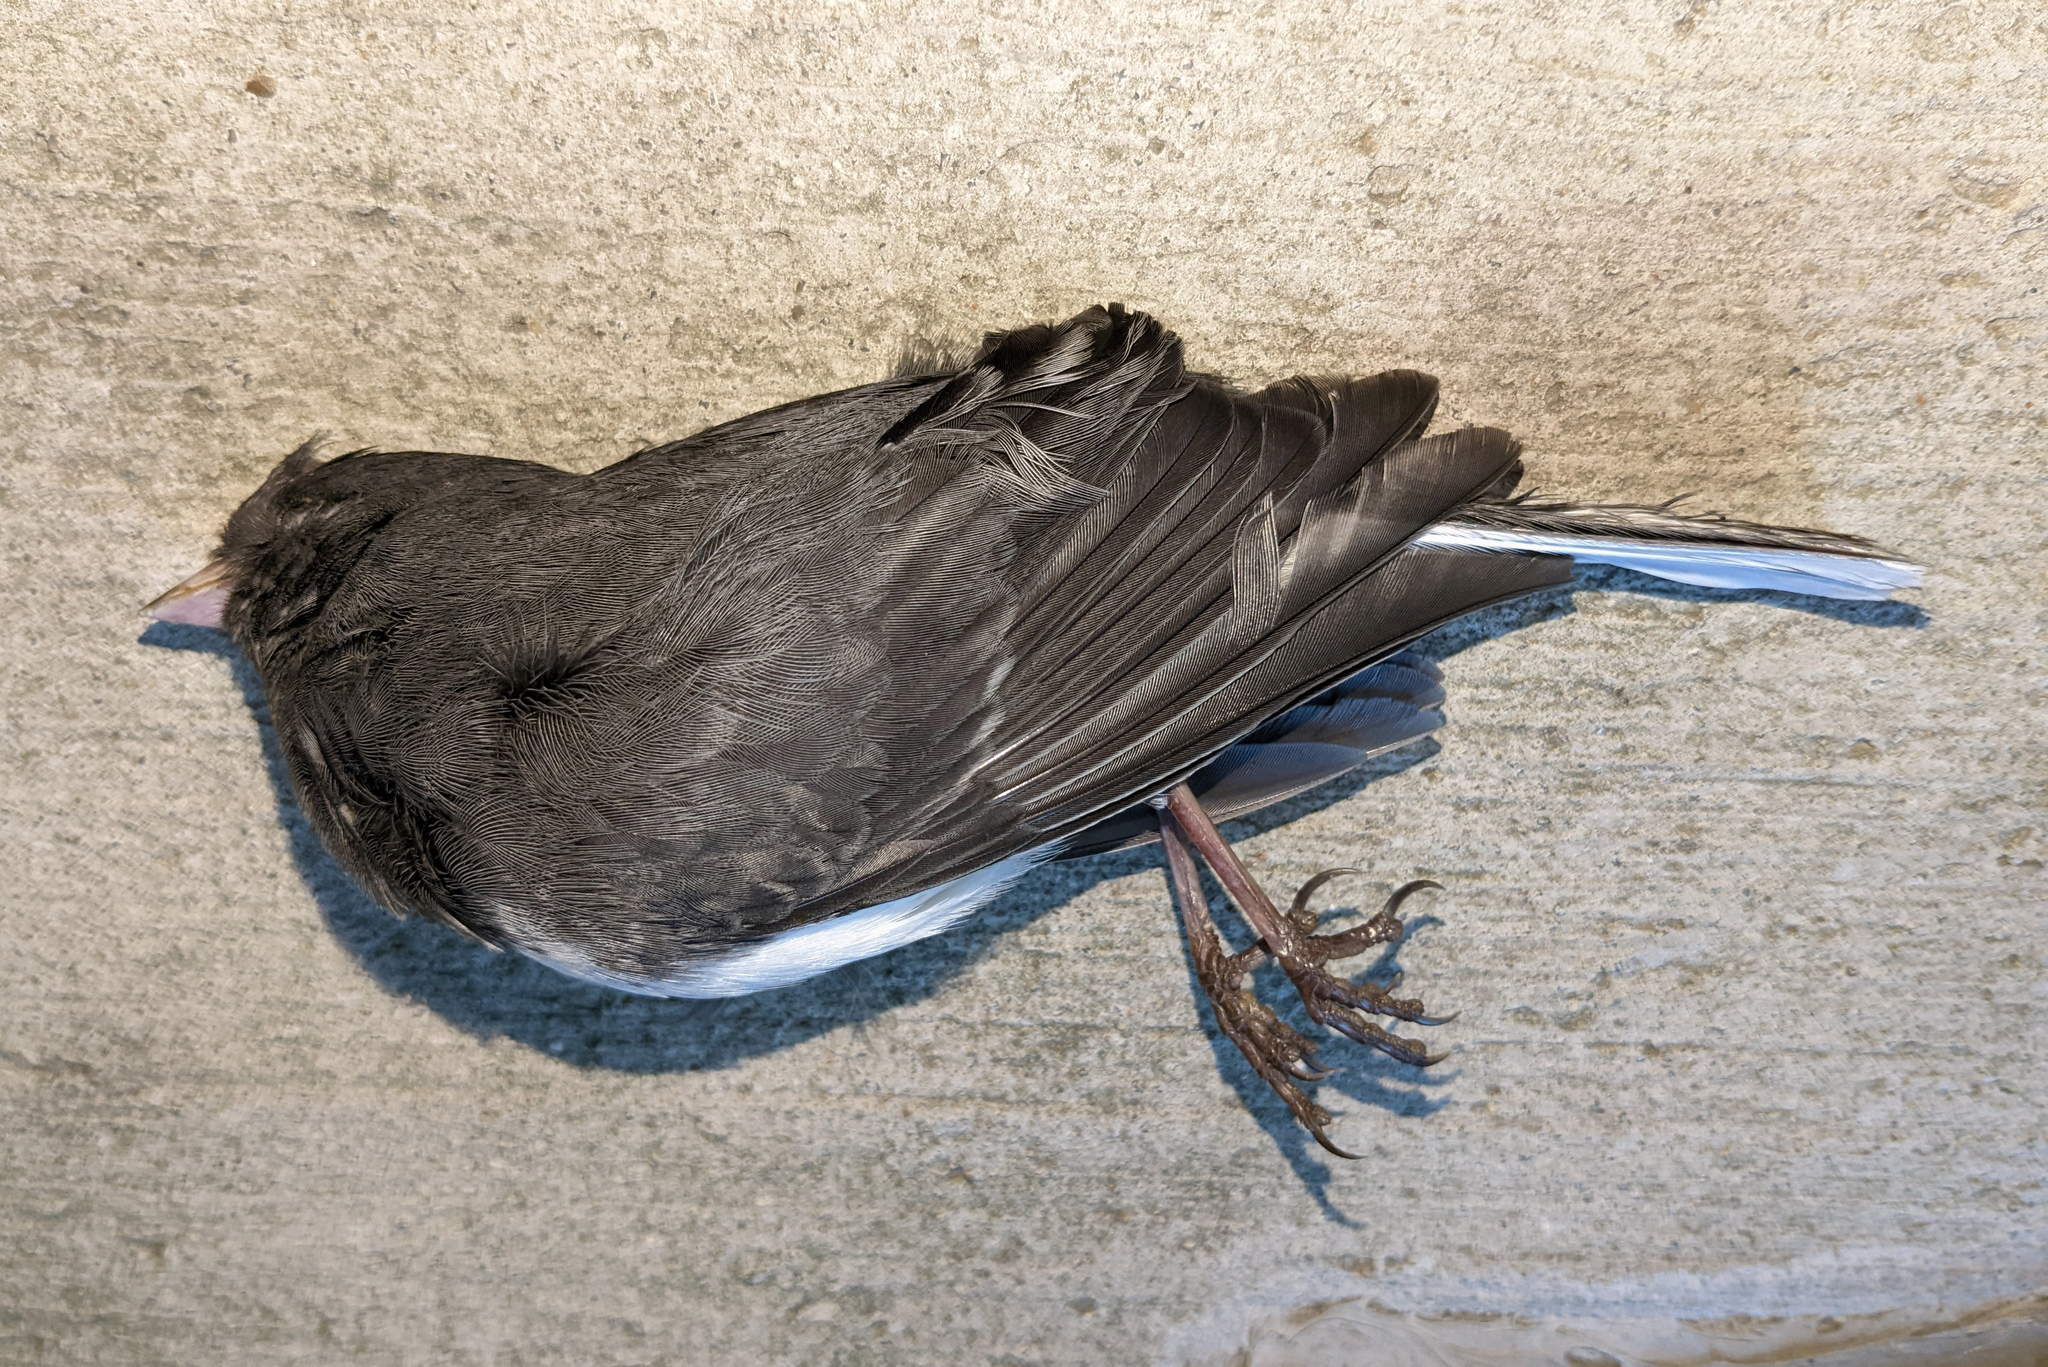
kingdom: Animalia
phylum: Chordata
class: Aves
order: Passeriformes
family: Passerellidae
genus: Junco
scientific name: Junco hyemalis
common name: Dark-eyed junco
